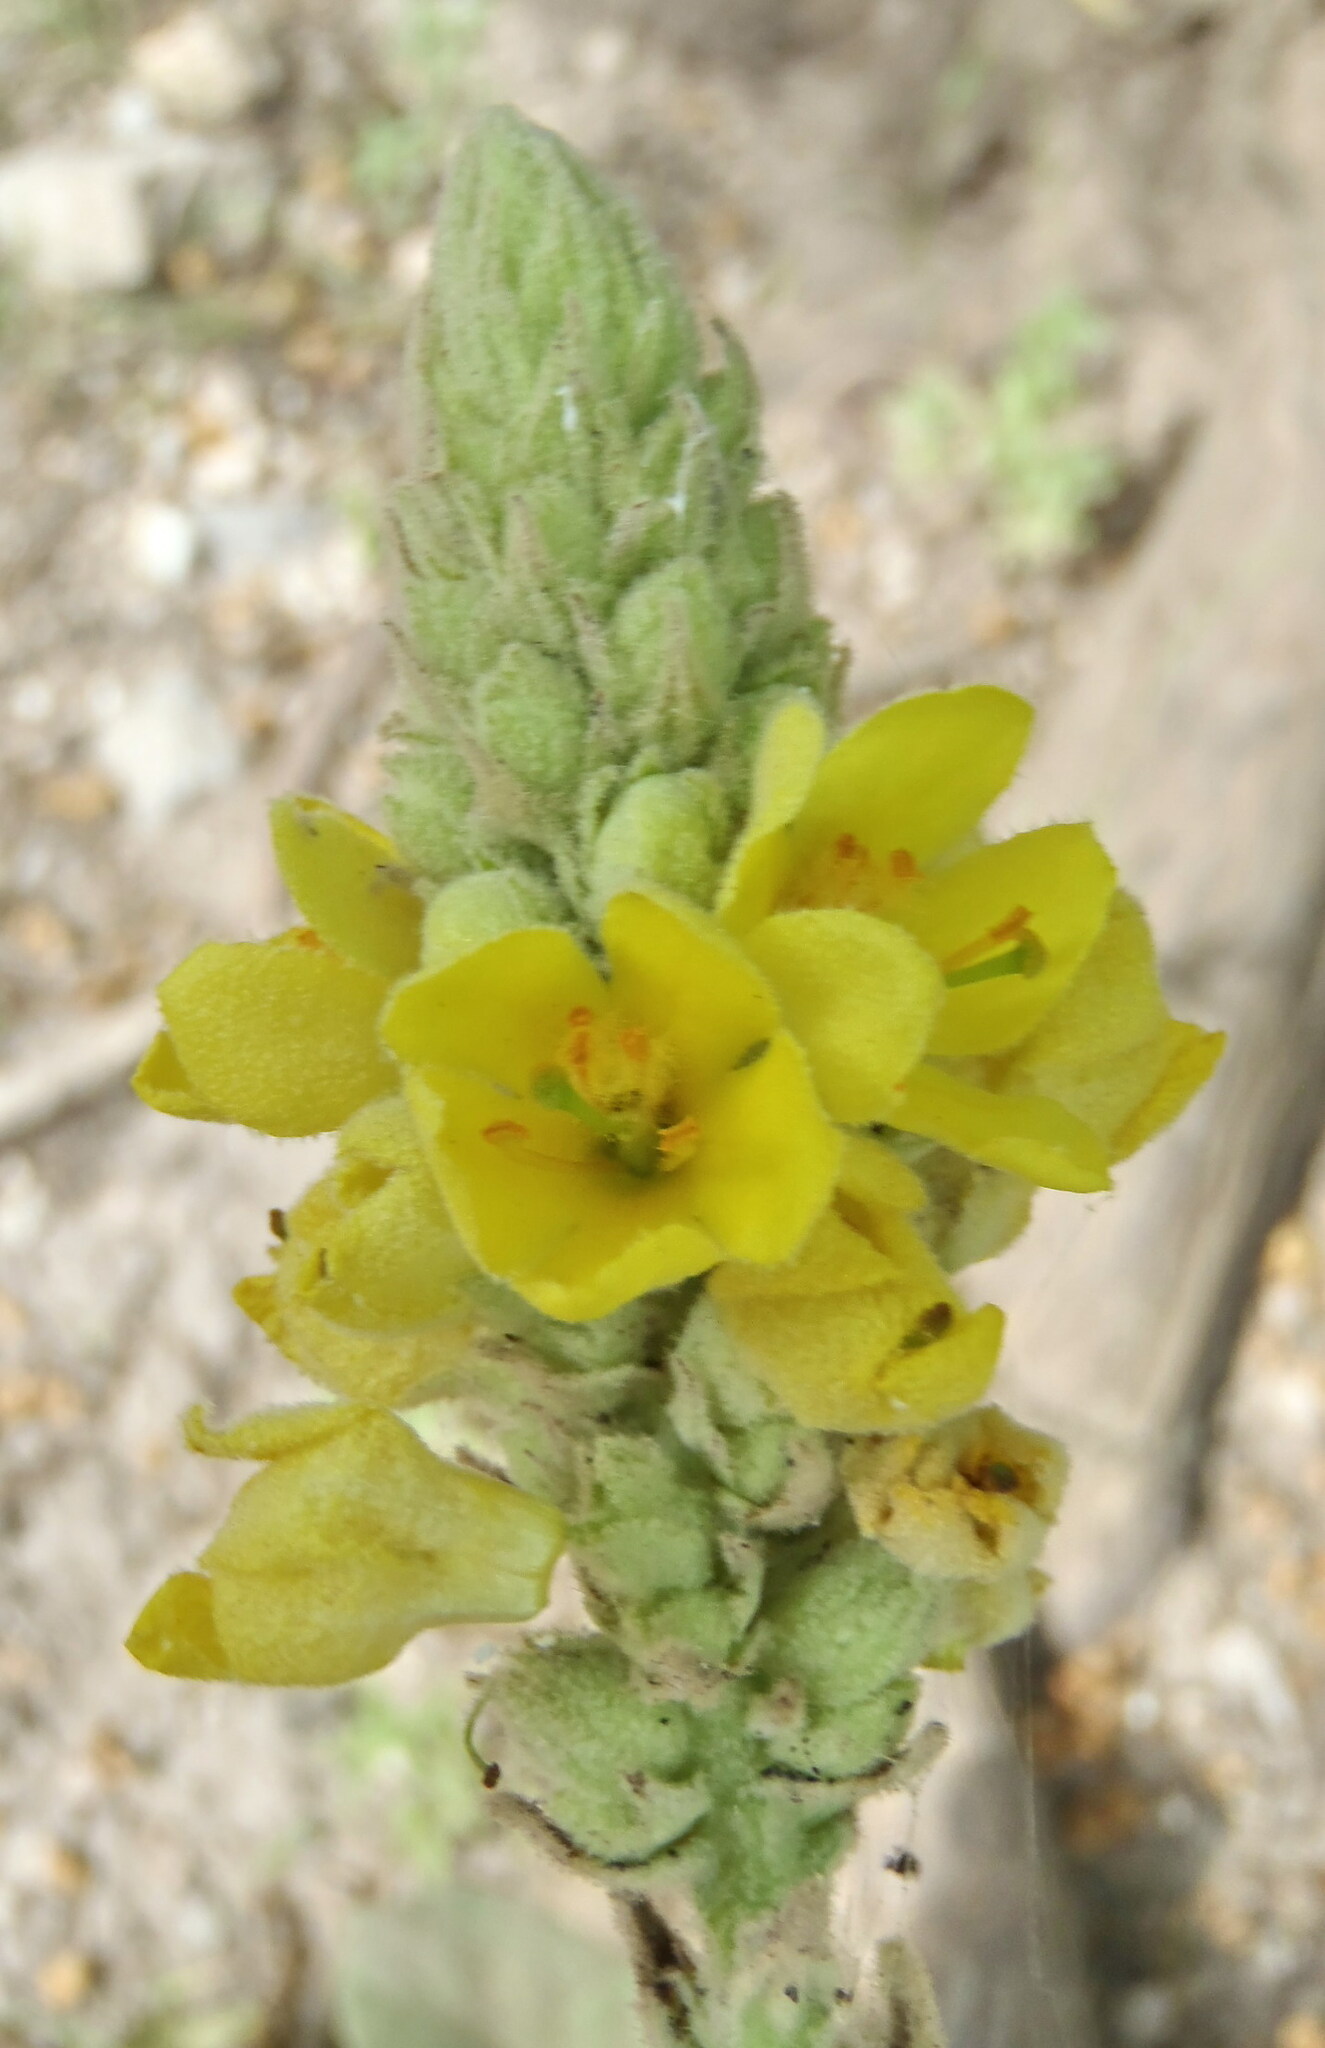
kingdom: Plantae
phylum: Tracheophyta
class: Magnoliopsida
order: Lamiales
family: Scrophulariaceae
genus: Verbascum
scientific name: Verbascum thapsus
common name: Common mullein
